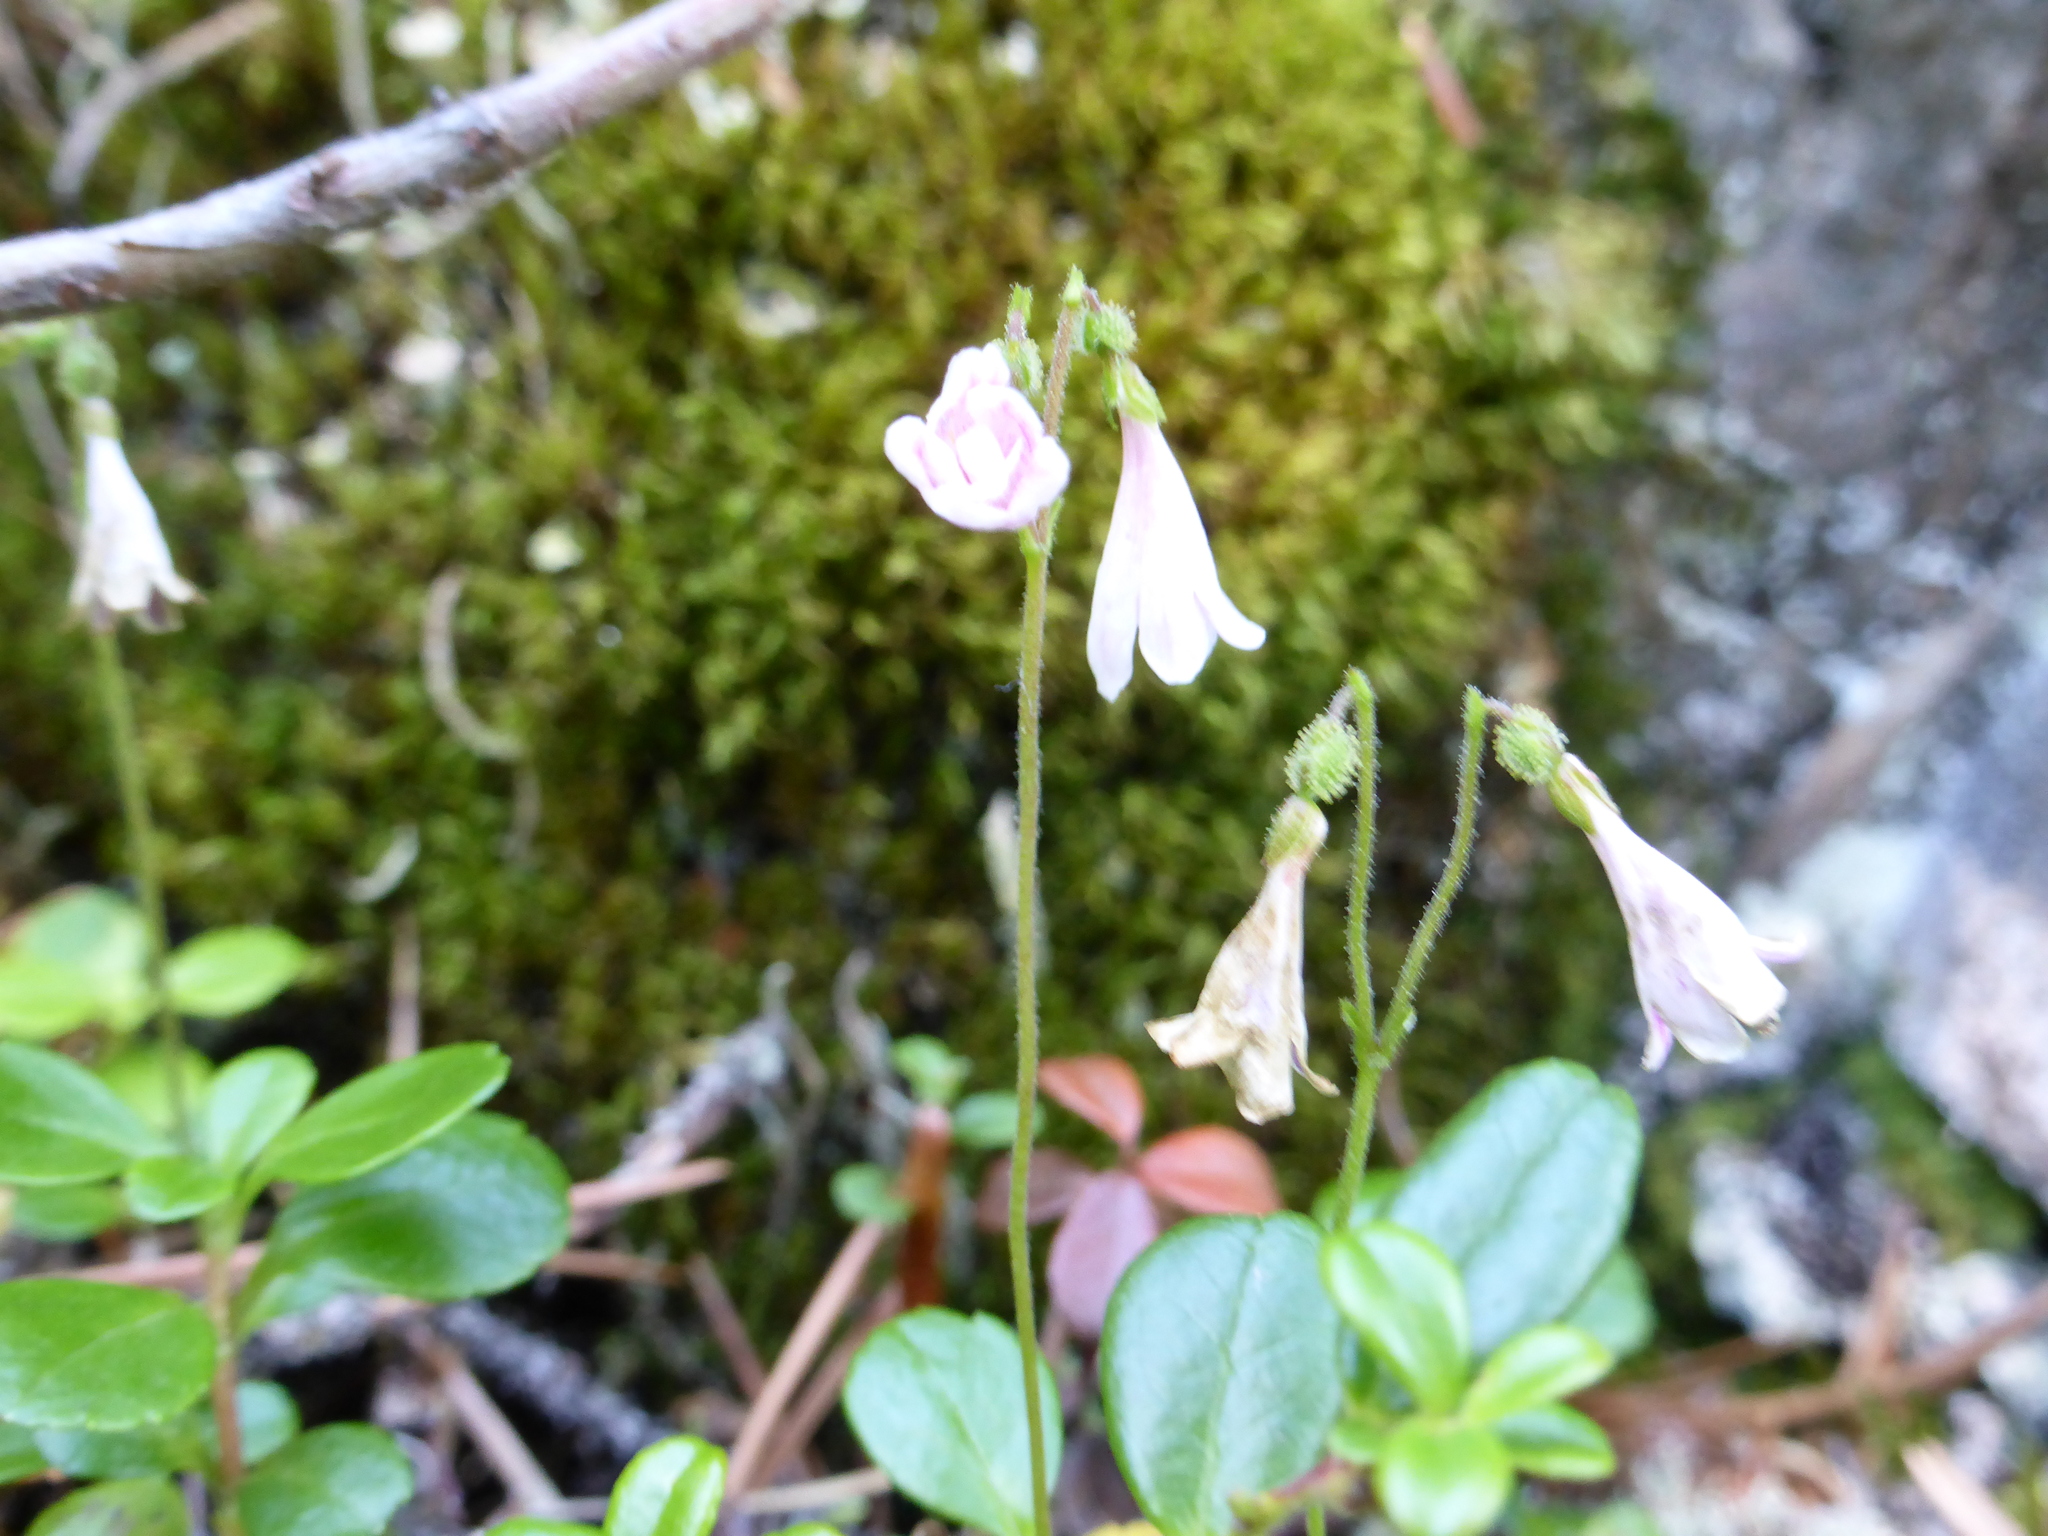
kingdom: Plantae
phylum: Tracheophyta
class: Magnoliopsida
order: Dipsacales
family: Caprifoliaceae
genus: Linnaea
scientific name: Linnaea borealis
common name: Twinflower
